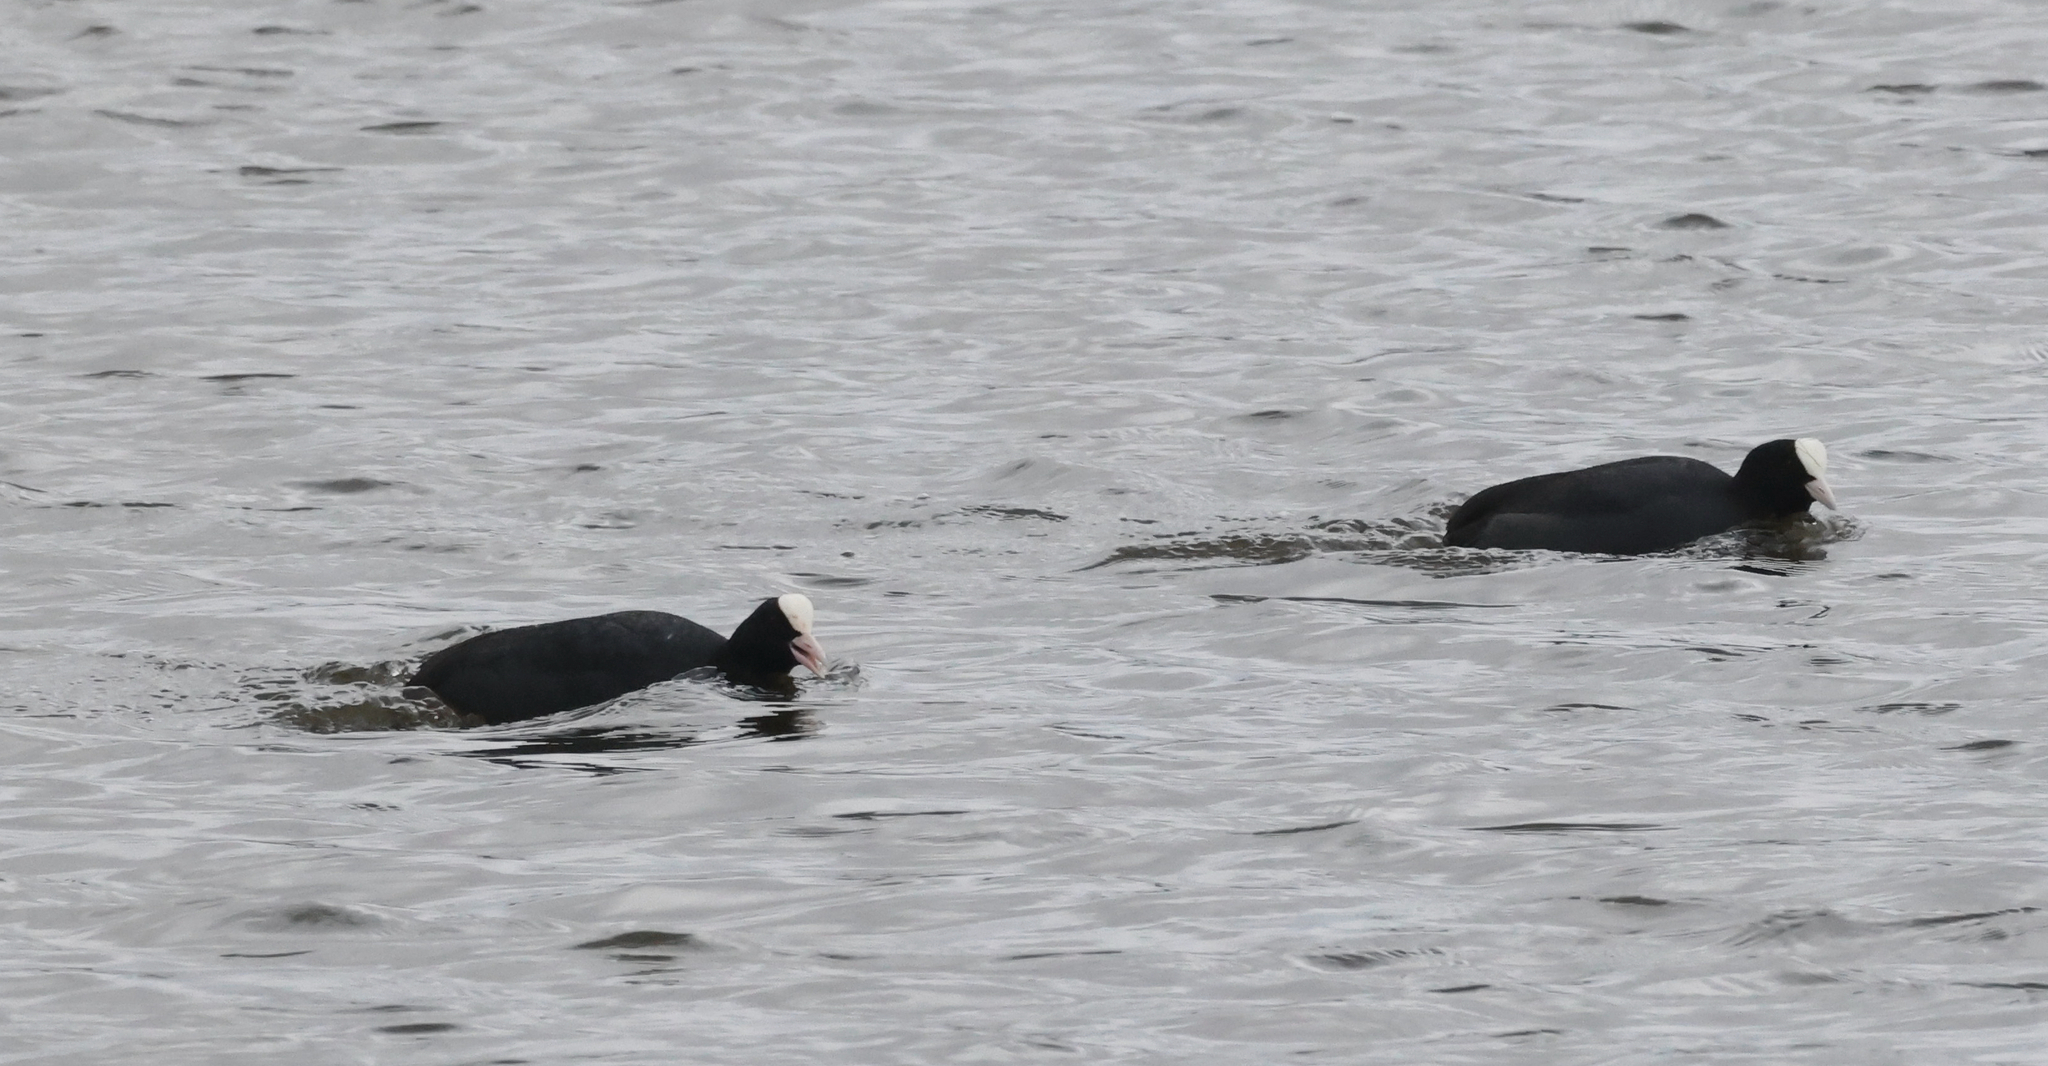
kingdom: Animalia
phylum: Chordata
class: Aves
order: Gruiformes
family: Rallidae
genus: Fulica
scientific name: Fulica atra
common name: Eurasian coot
